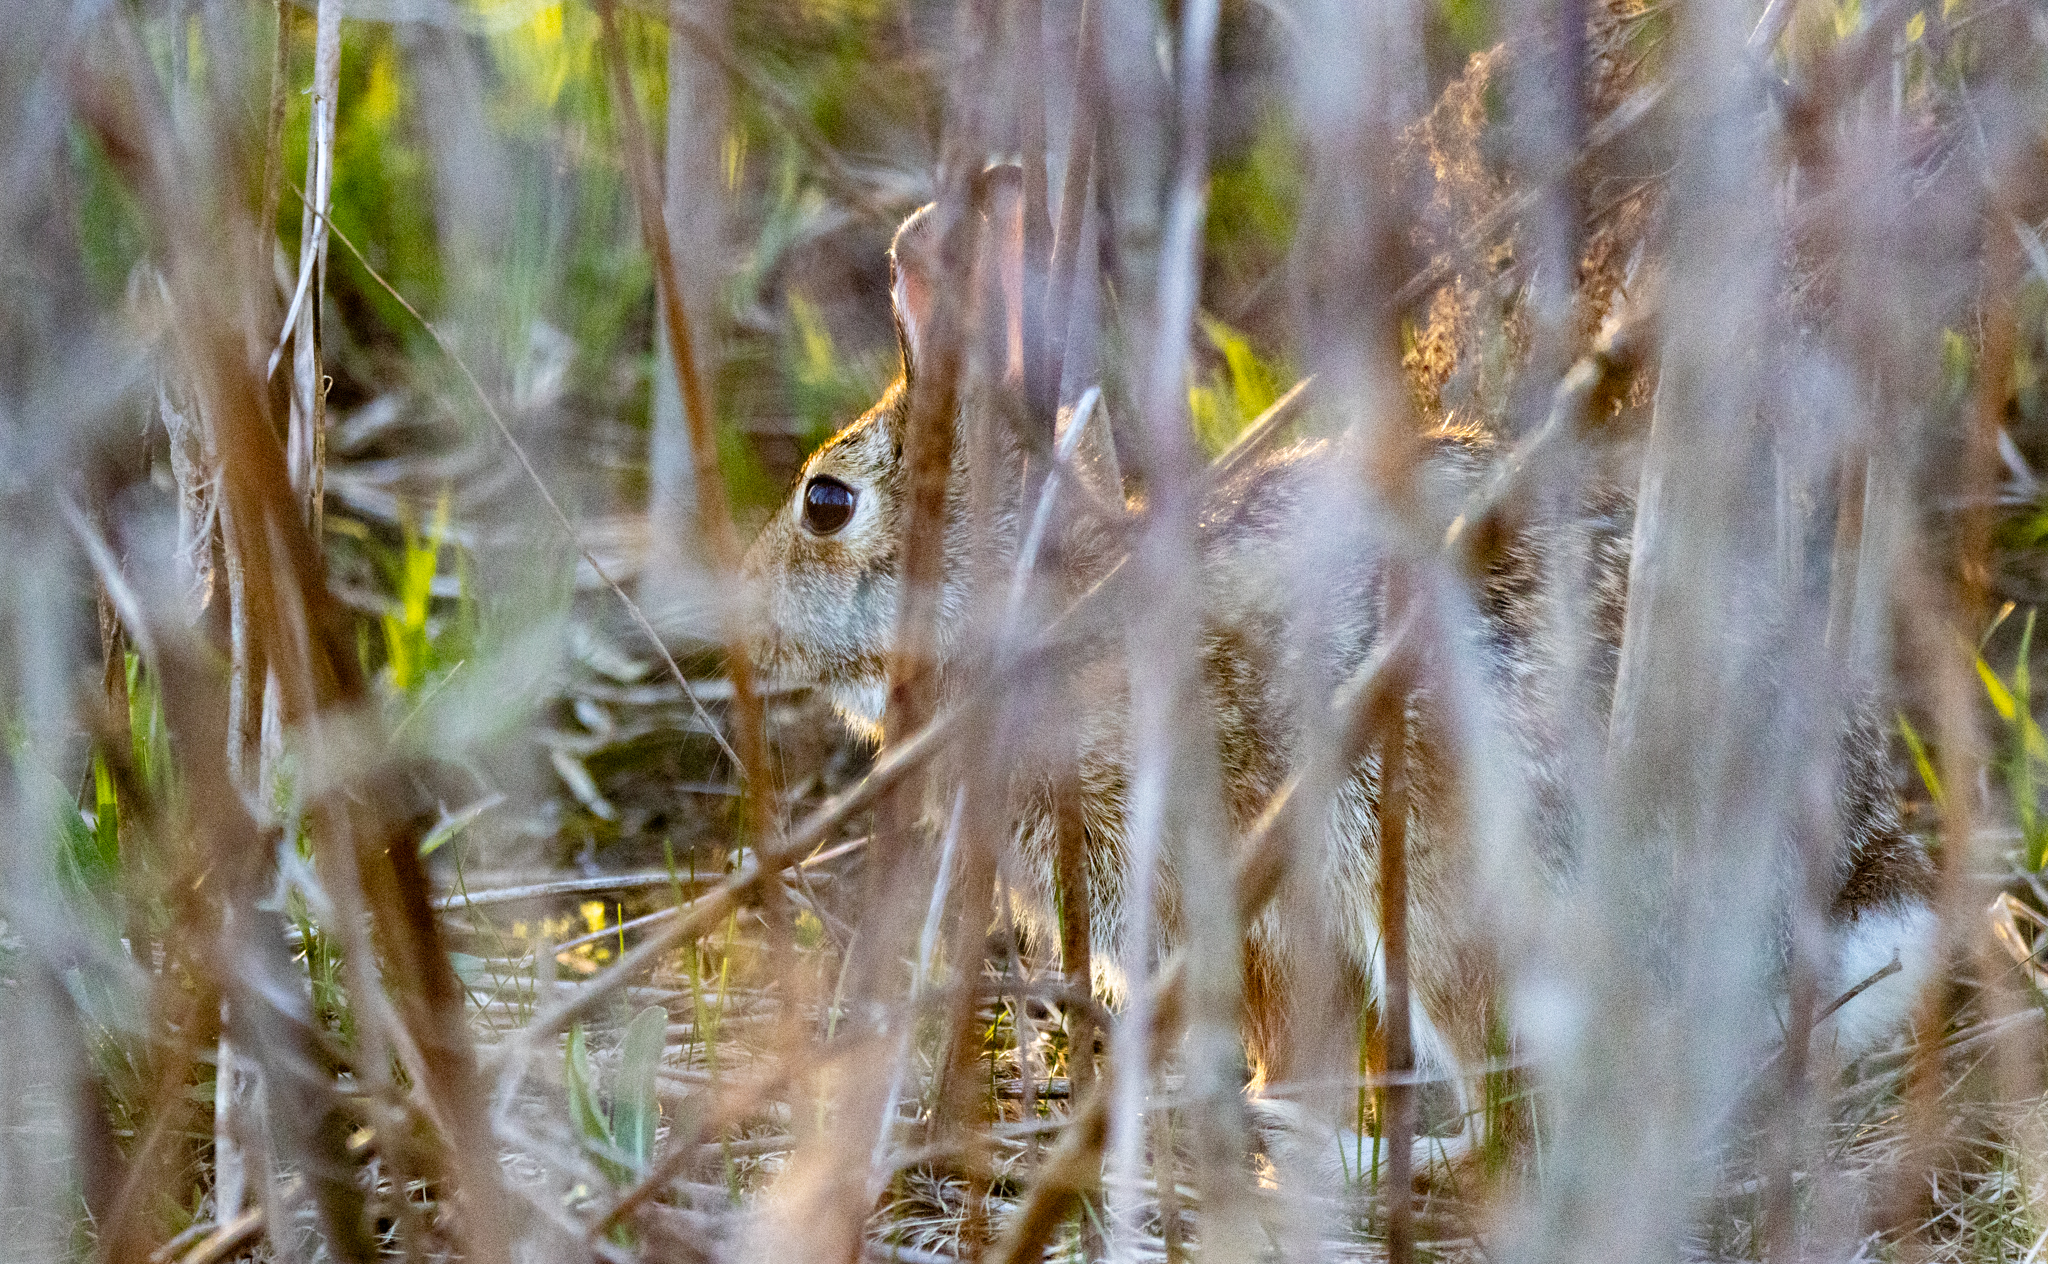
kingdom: Animalia
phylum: Chordata
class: Mammalia
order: Lagomorpha
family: Leporidae
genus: Sylvilagus
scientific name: Sylvilagus floridanus
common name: Eastern cottontail
